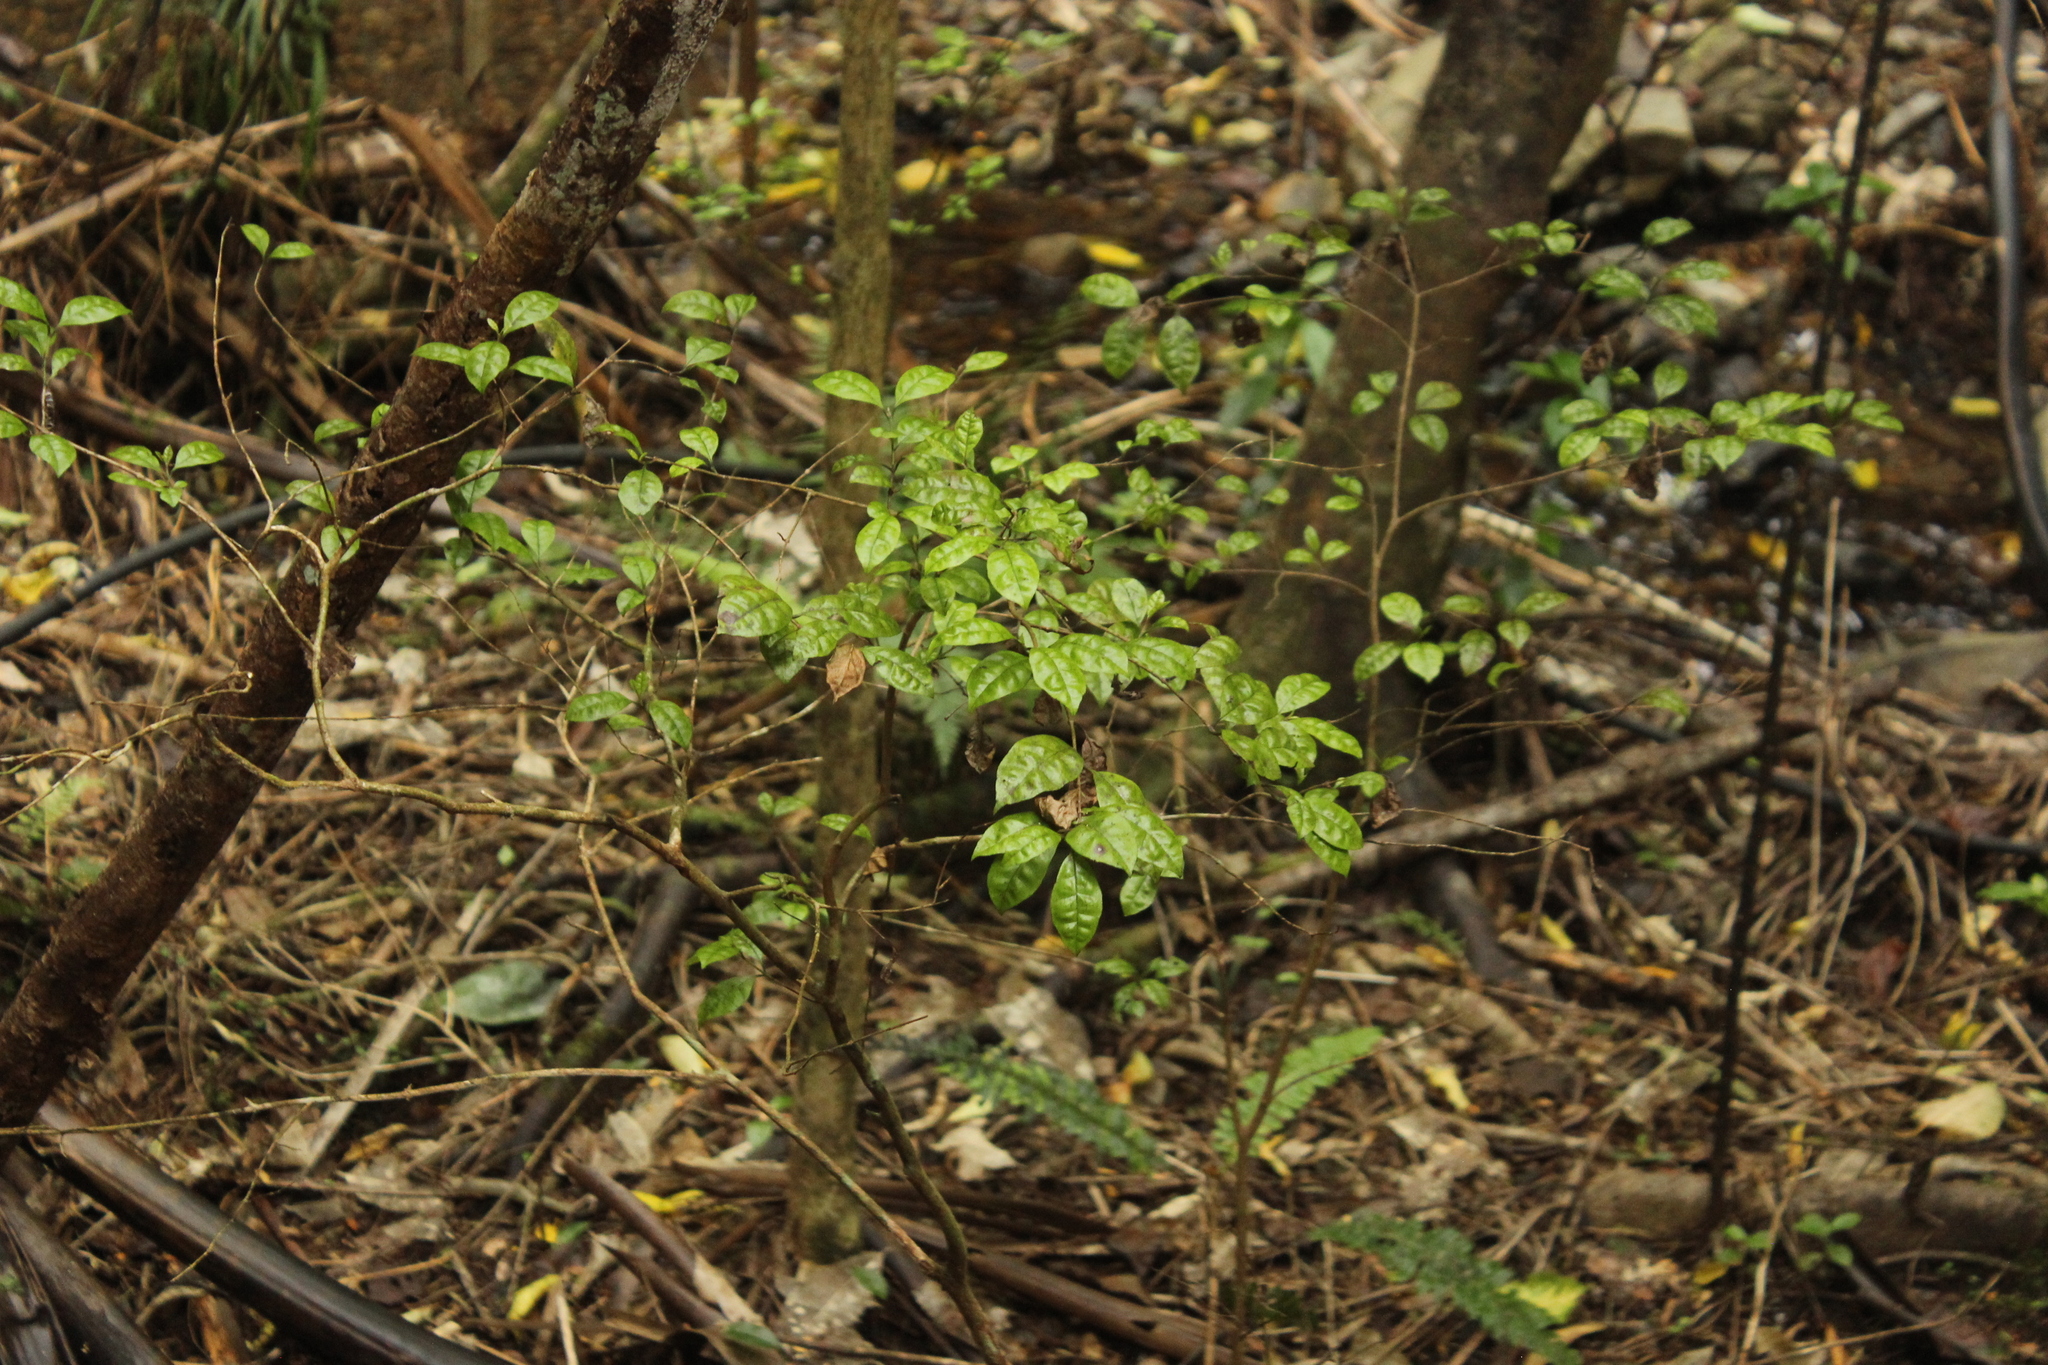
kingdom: Plantae
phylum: Tracheophyta
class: Magnoliopsida
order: Myrtales
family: Myrtaceae
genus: Lophomyrtus
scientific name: Lophomyrtus bullata
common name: Rama rama
